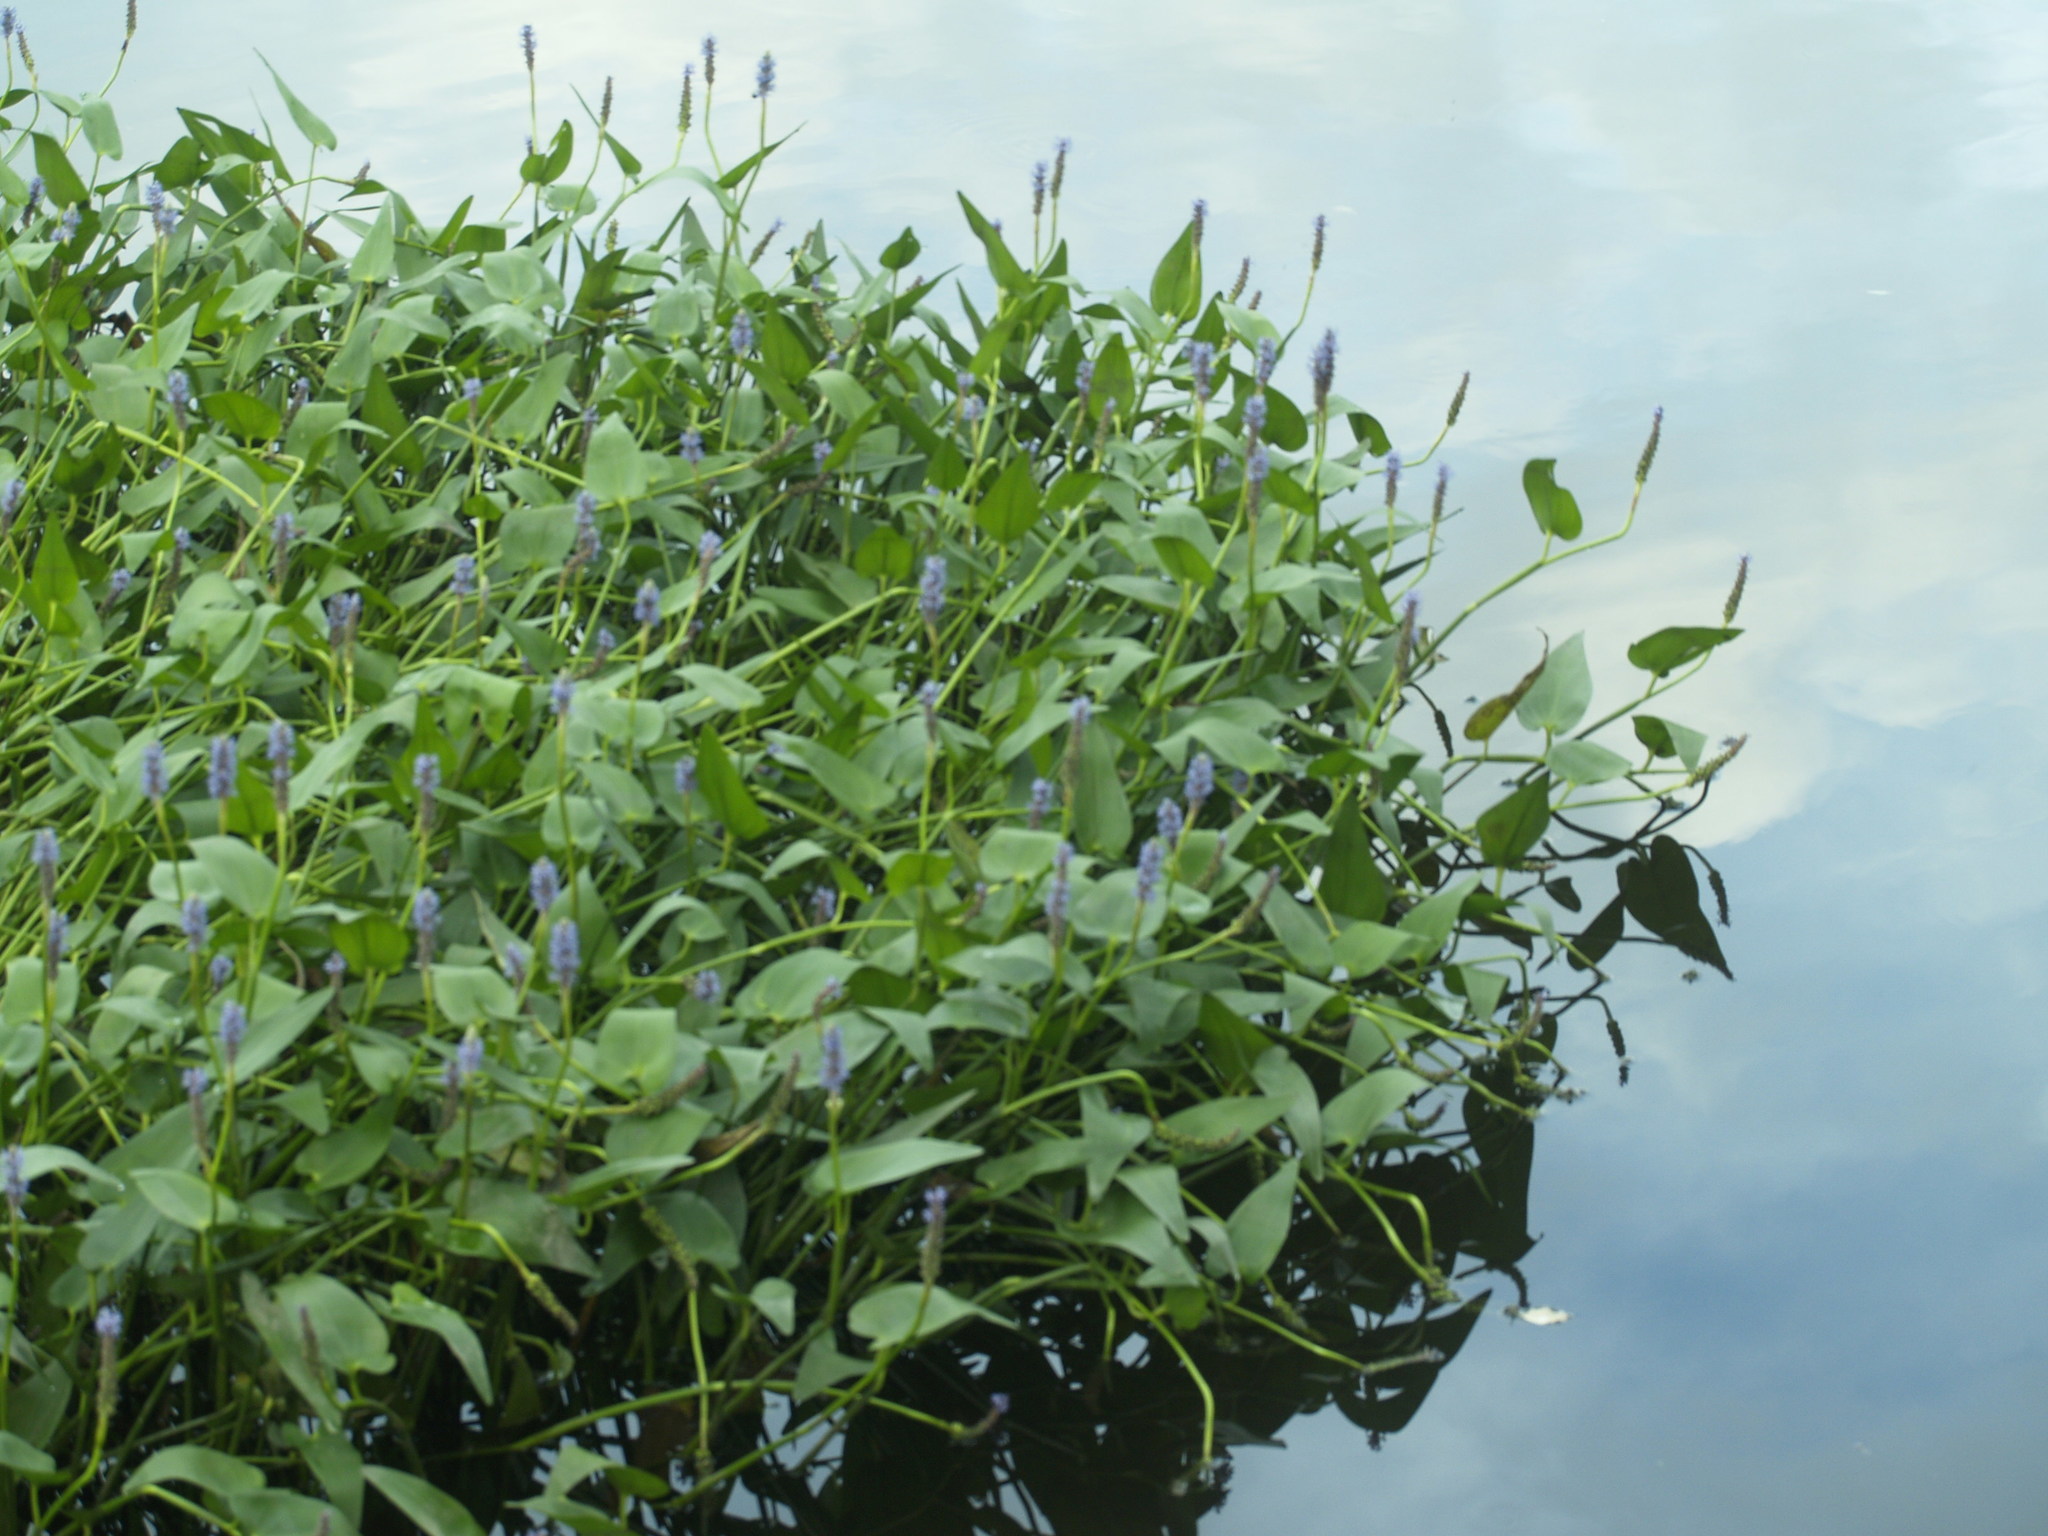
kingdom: Plantae
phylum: Tracheophyta
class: Liliopsida
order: Commelinales
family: Pontederiaceae
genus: Pontederia
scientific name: Pontederia cordata
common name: Pickerelweed
